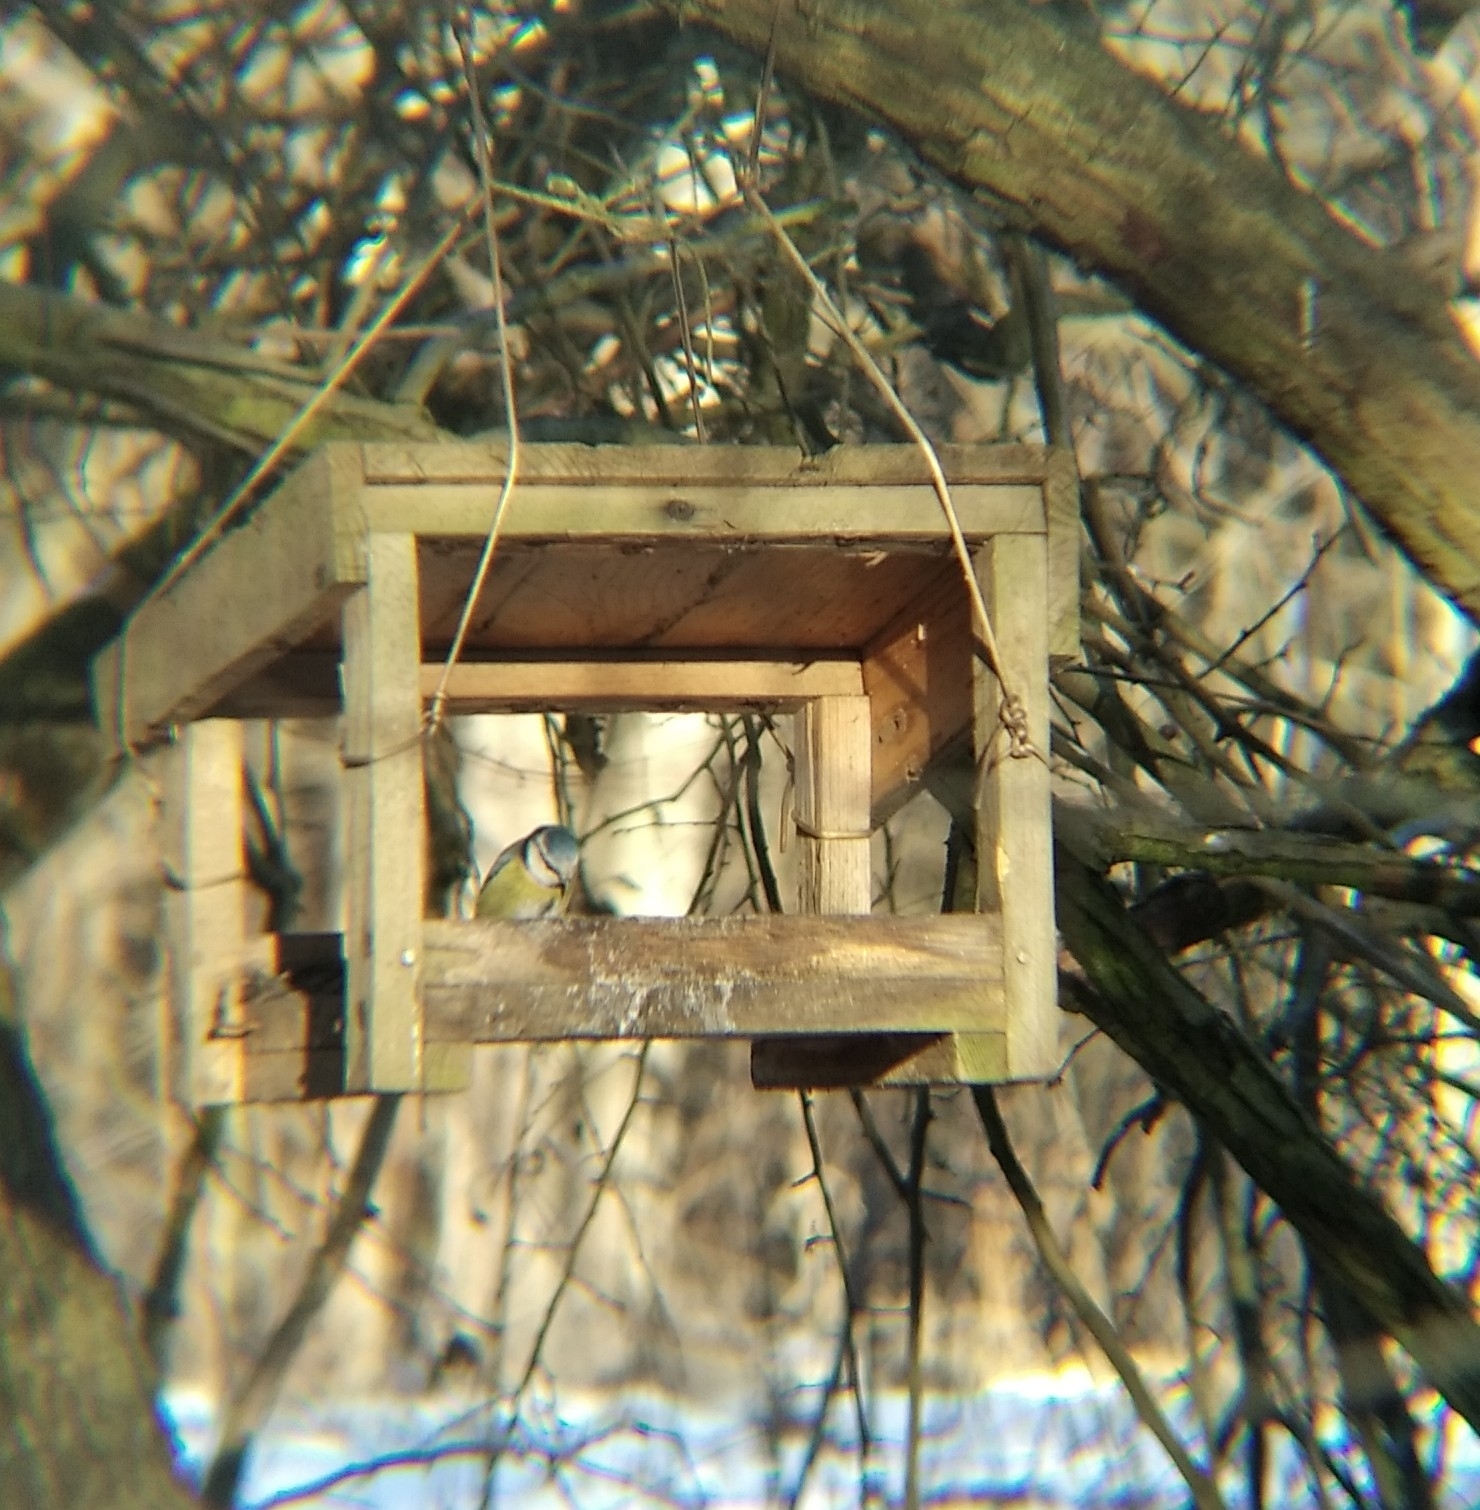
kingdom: Animalia
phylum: Chordata
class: Aves
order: Passeriformes
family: Paridae
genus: Cyanistes
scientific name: Cyanistes caeruleus
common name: Eurasian blue tit
